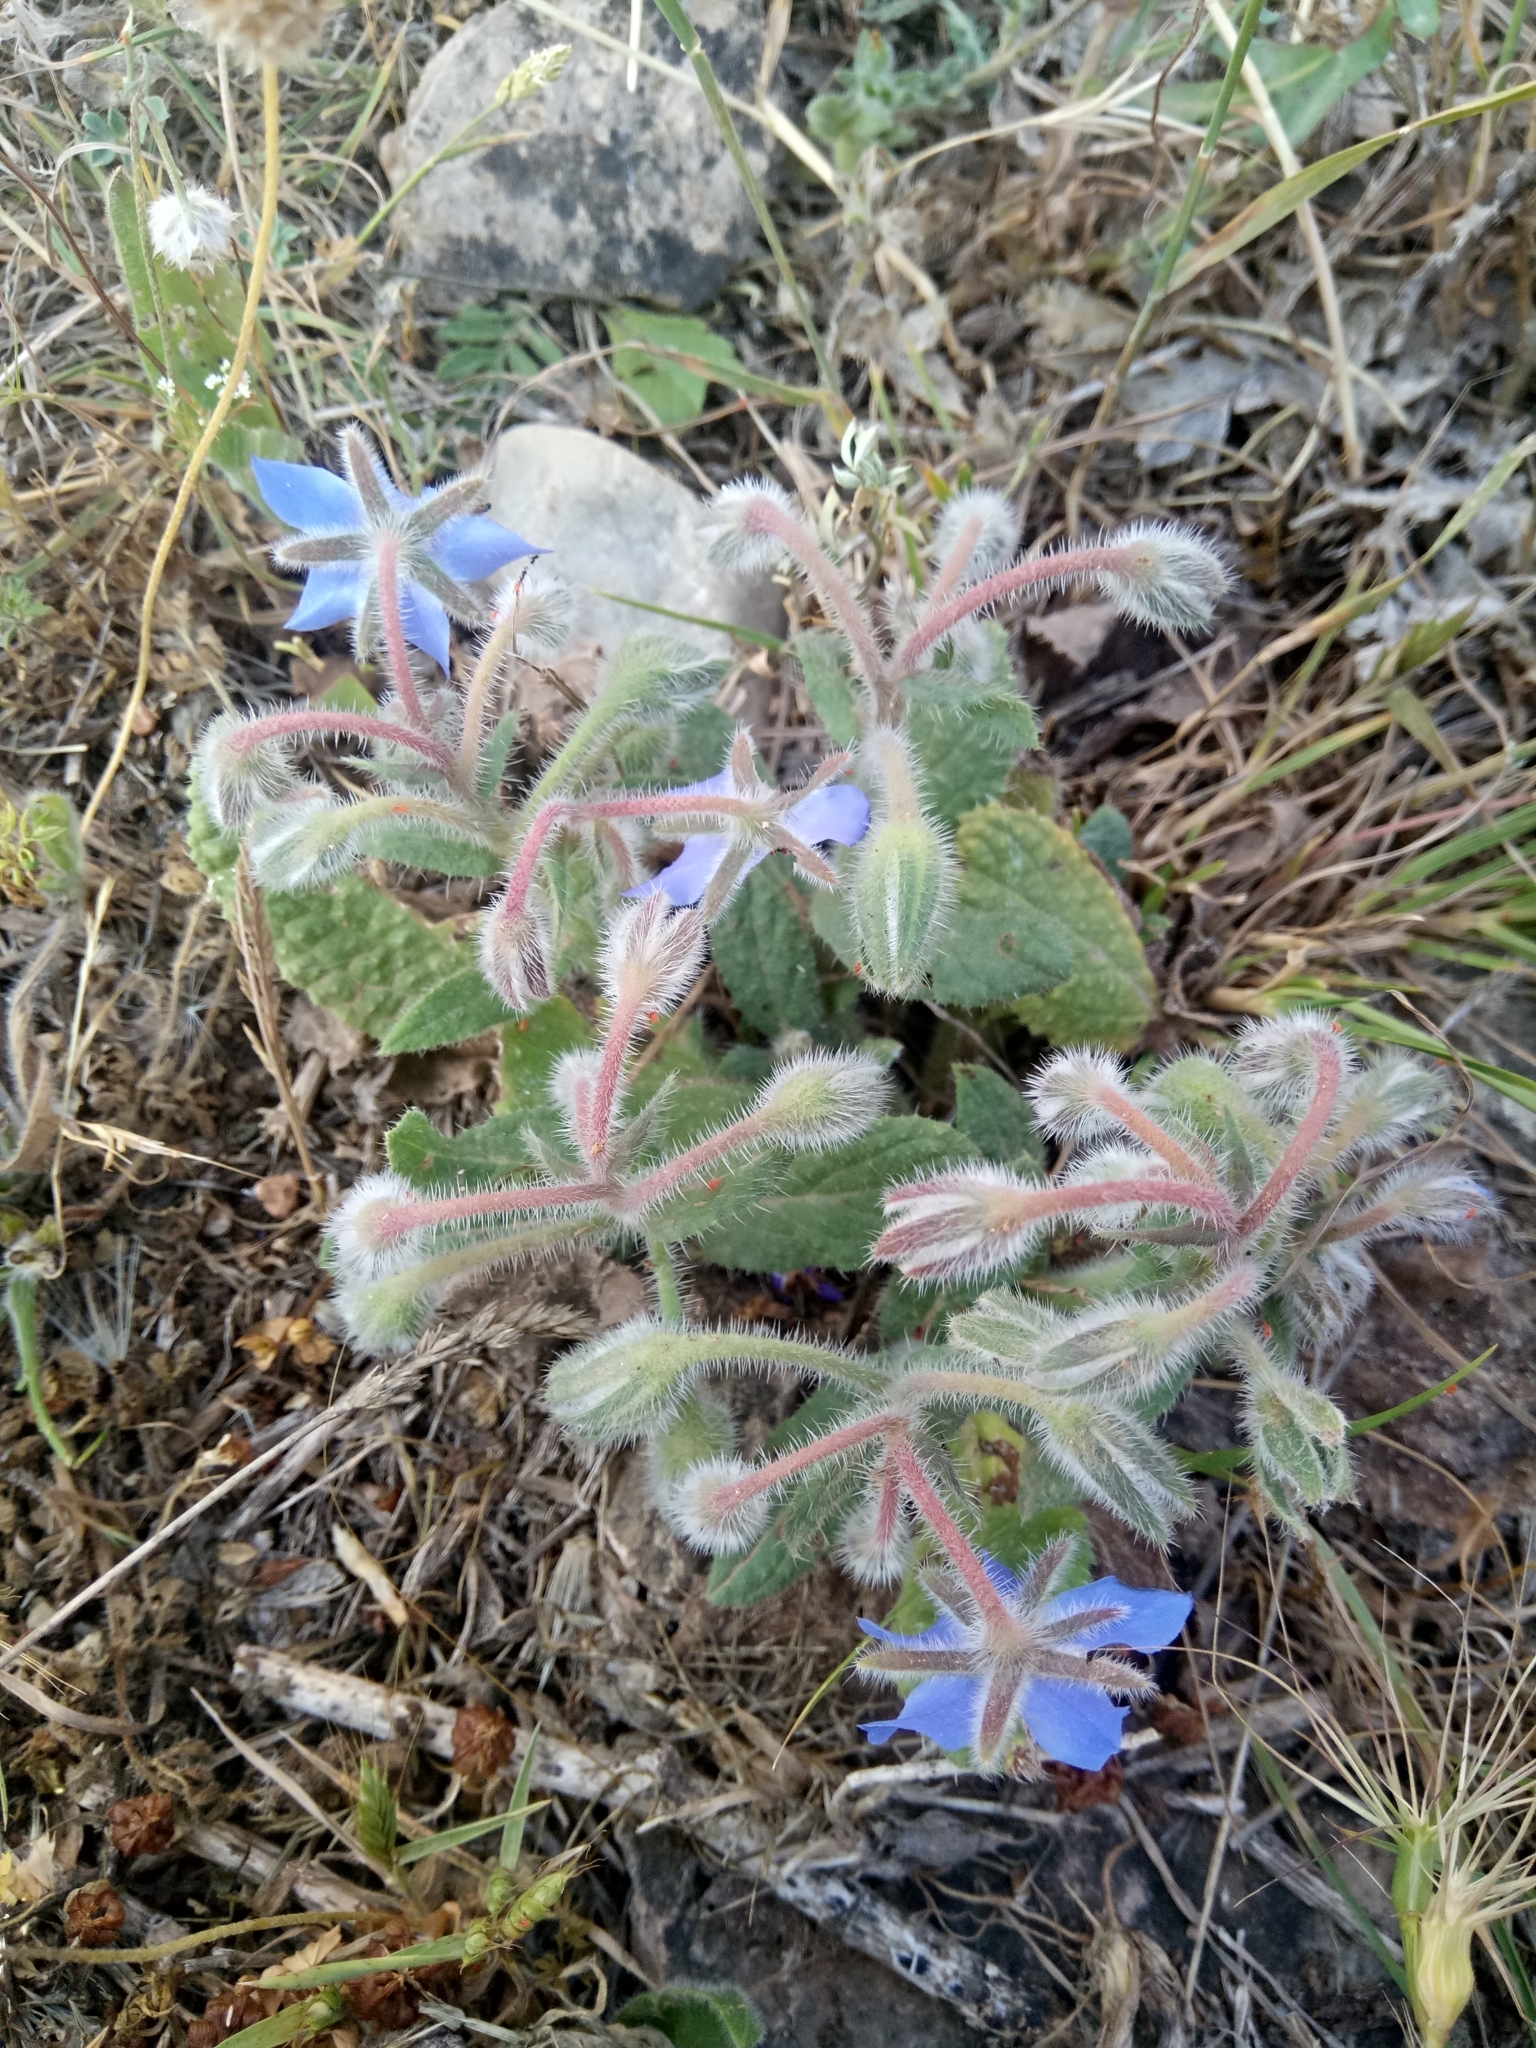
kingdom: Plantae
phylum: Tracheophyta
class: Magnoliopsida
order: Boraginales
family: Boraginaceae
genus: Borago
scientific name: Borago officinalis
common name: Borage
